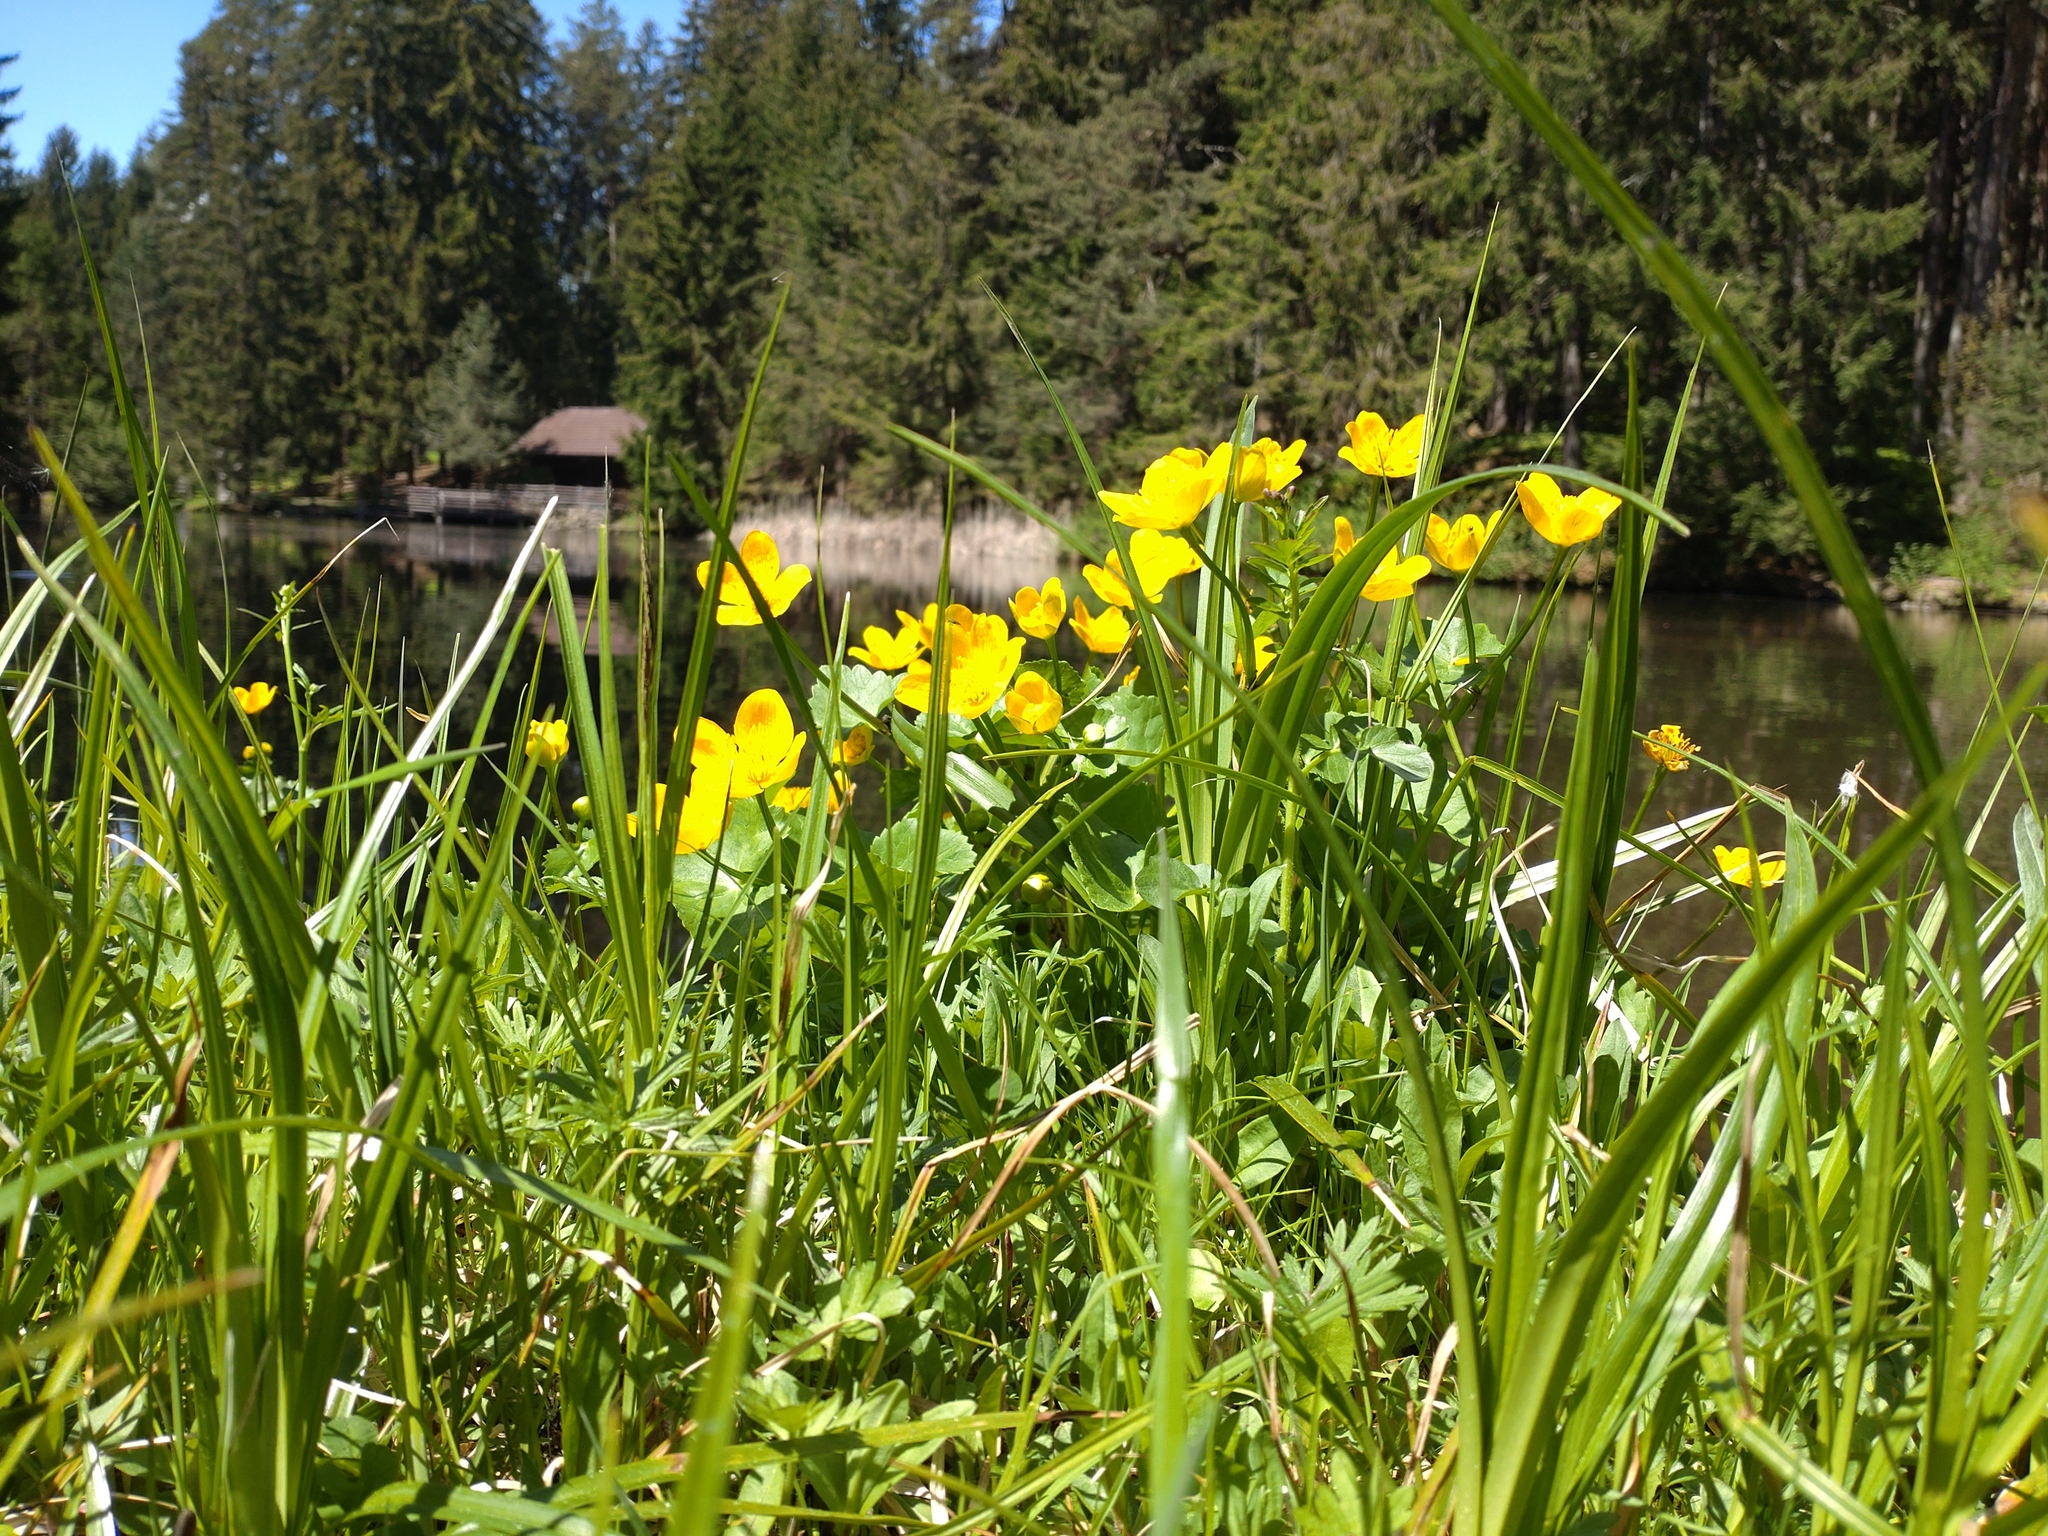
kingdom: Plantae
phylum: Tracheophyta
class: Magnoliopsida
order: Ranunculales
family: Ranunculaceae
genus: Caltha
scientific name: Caltha palustris
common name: Marsh marigold
